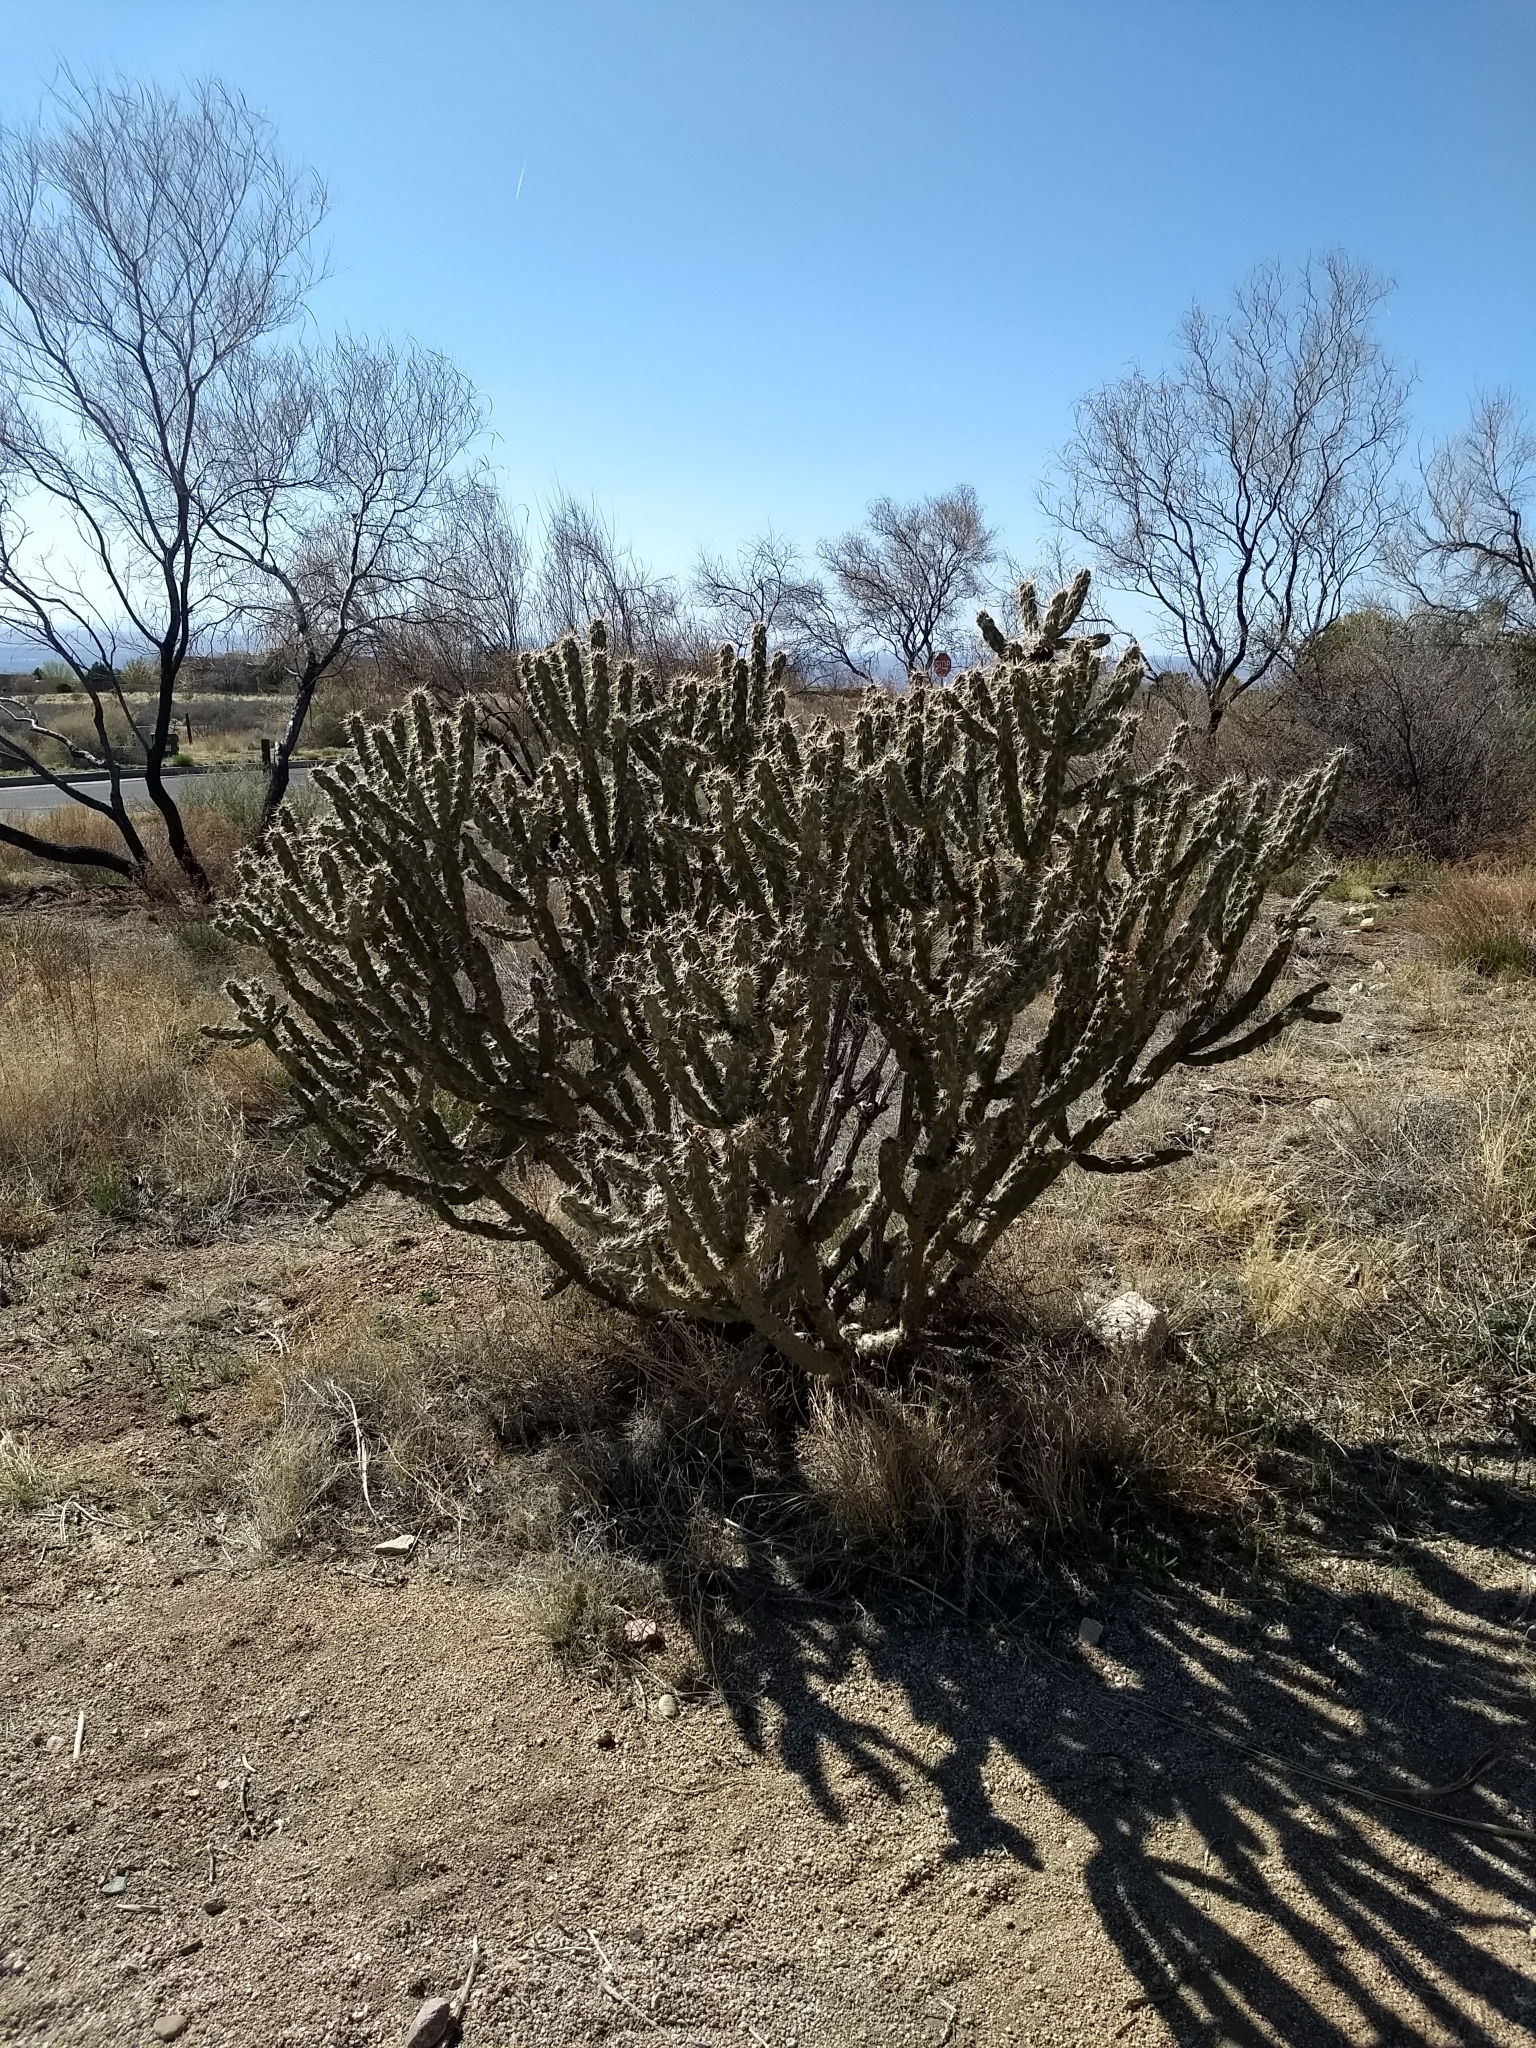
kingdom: Plantae
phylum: Tracheophyta
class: Magnoliopsida
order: Caryophyllales
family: Cactaceae
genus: Cylindropuntia
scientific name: Cylindropuntia imbricata
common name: Candelabrum cactus
